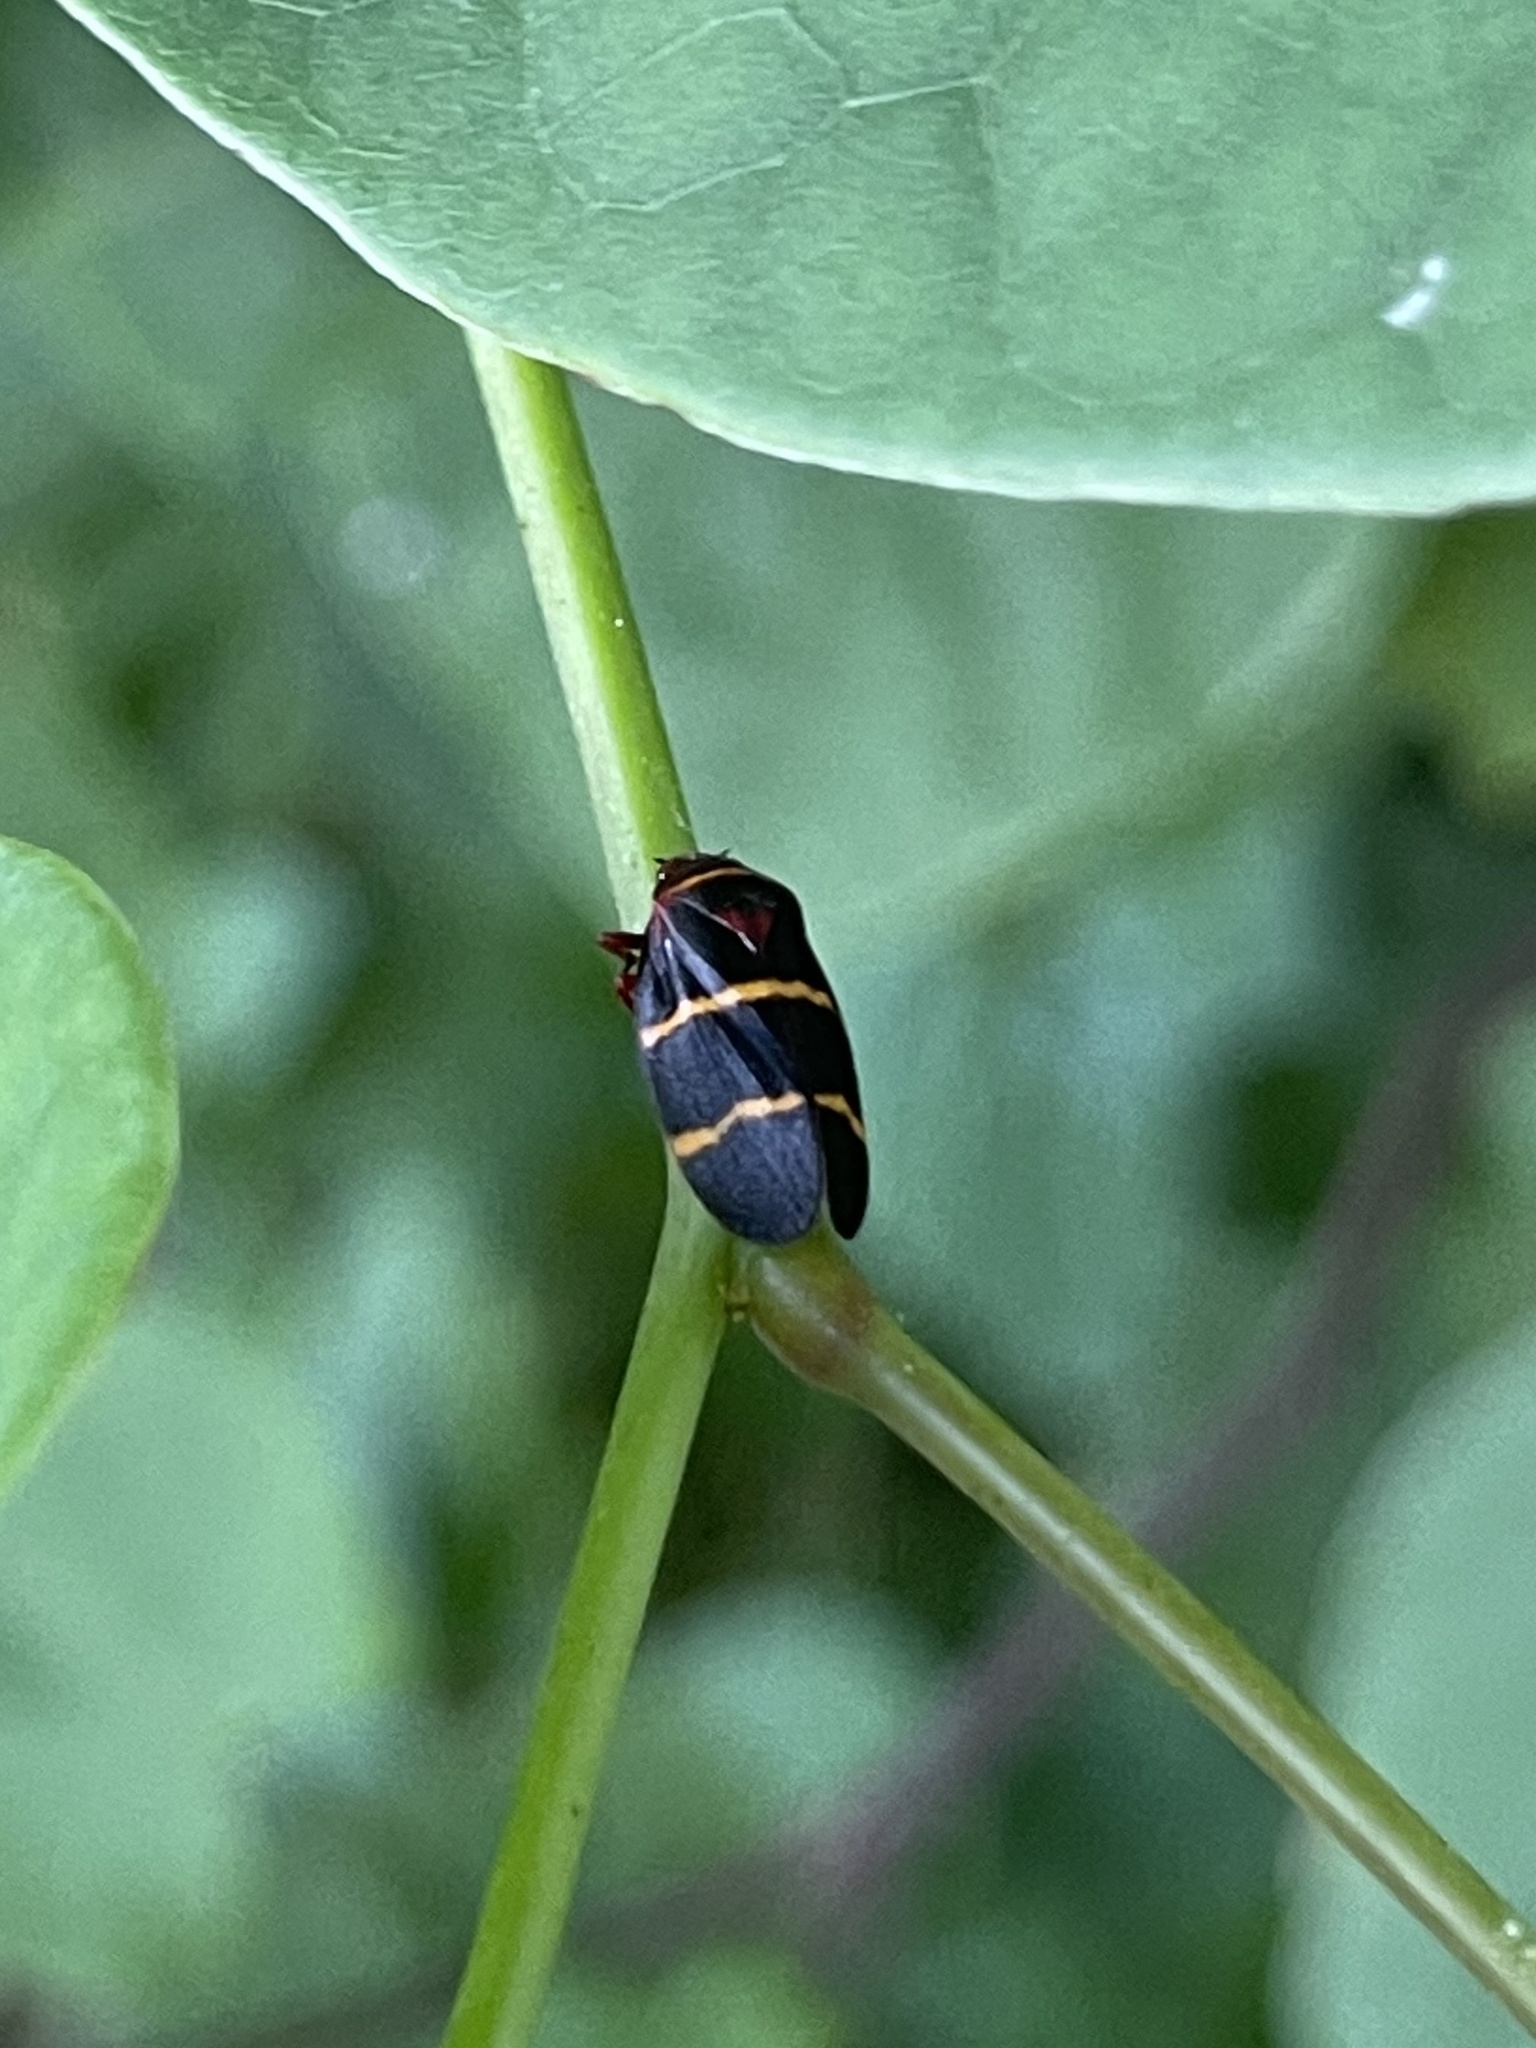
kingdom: Animalia
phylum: Arthropoda
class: Insecta
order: Hemiptera
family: Cercopidae
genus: Prosapia
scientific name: Prosapia bicincta
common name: Twolined spittlebug
